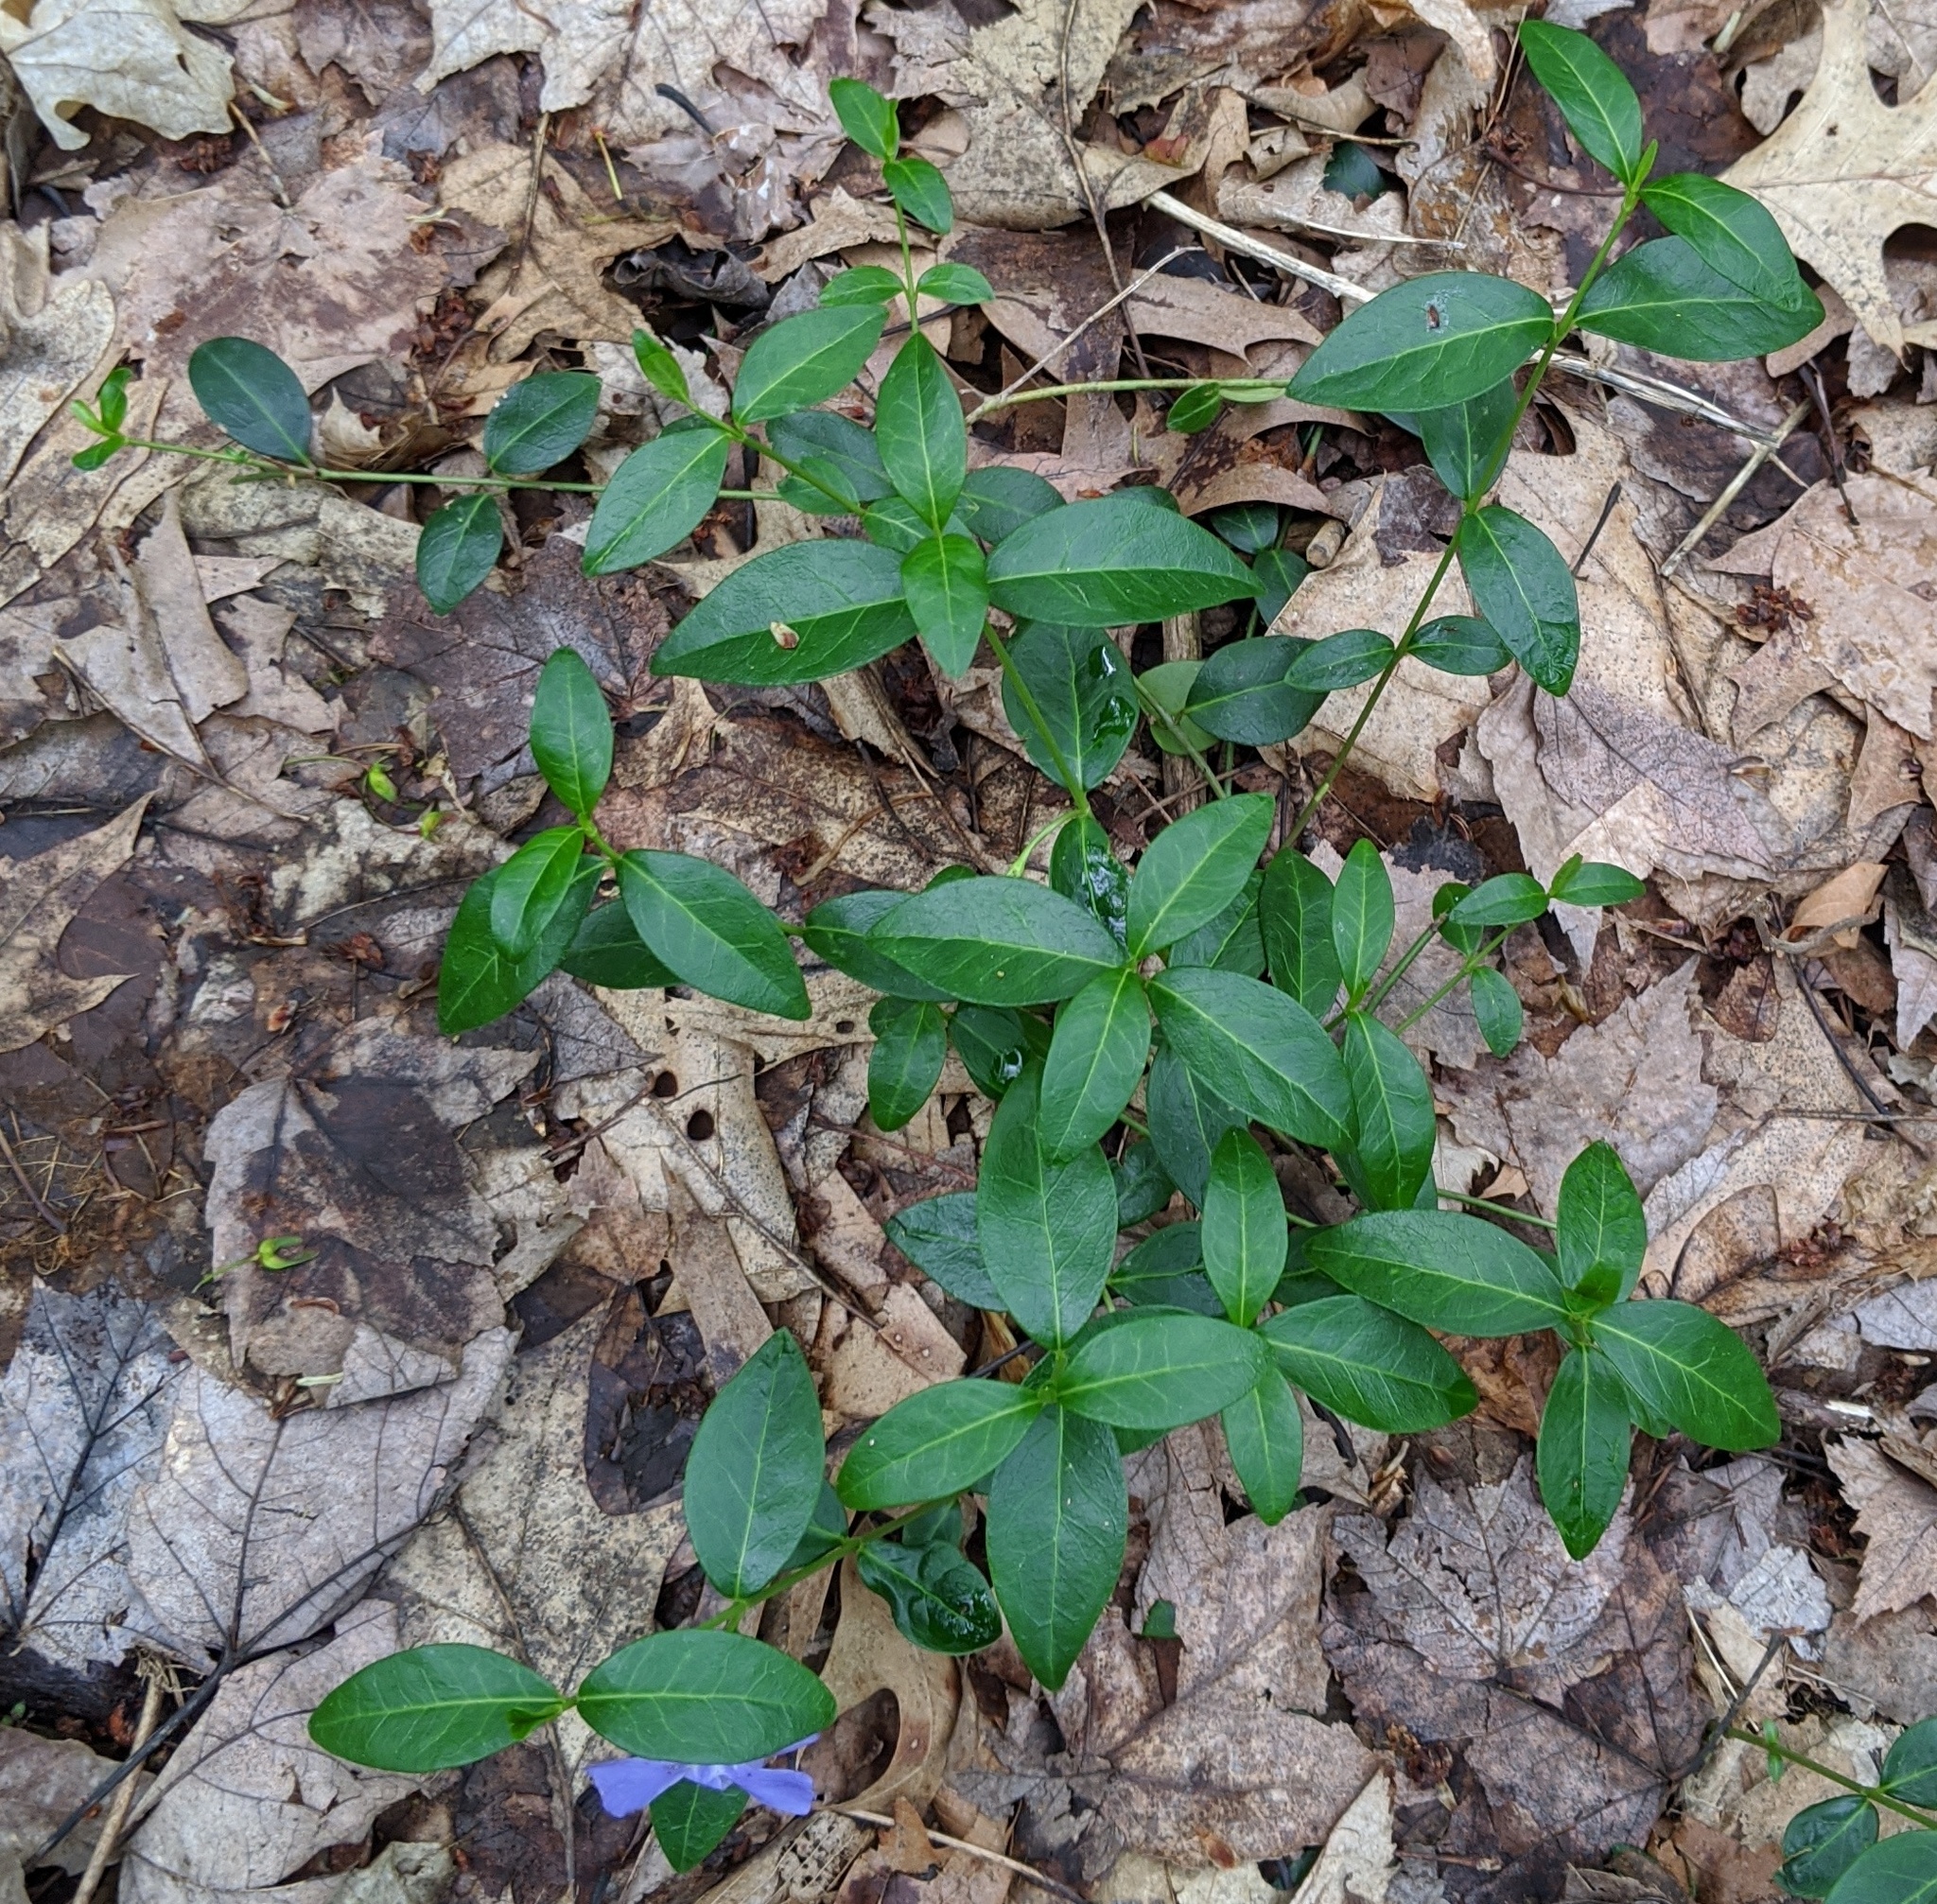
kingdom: Plantae
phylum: Tracheophyta
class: Magnoliopsida
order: Gentianales
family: Apocynaceae
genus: Vinca
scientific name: Vinca minor
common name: Lesser periwinkle
